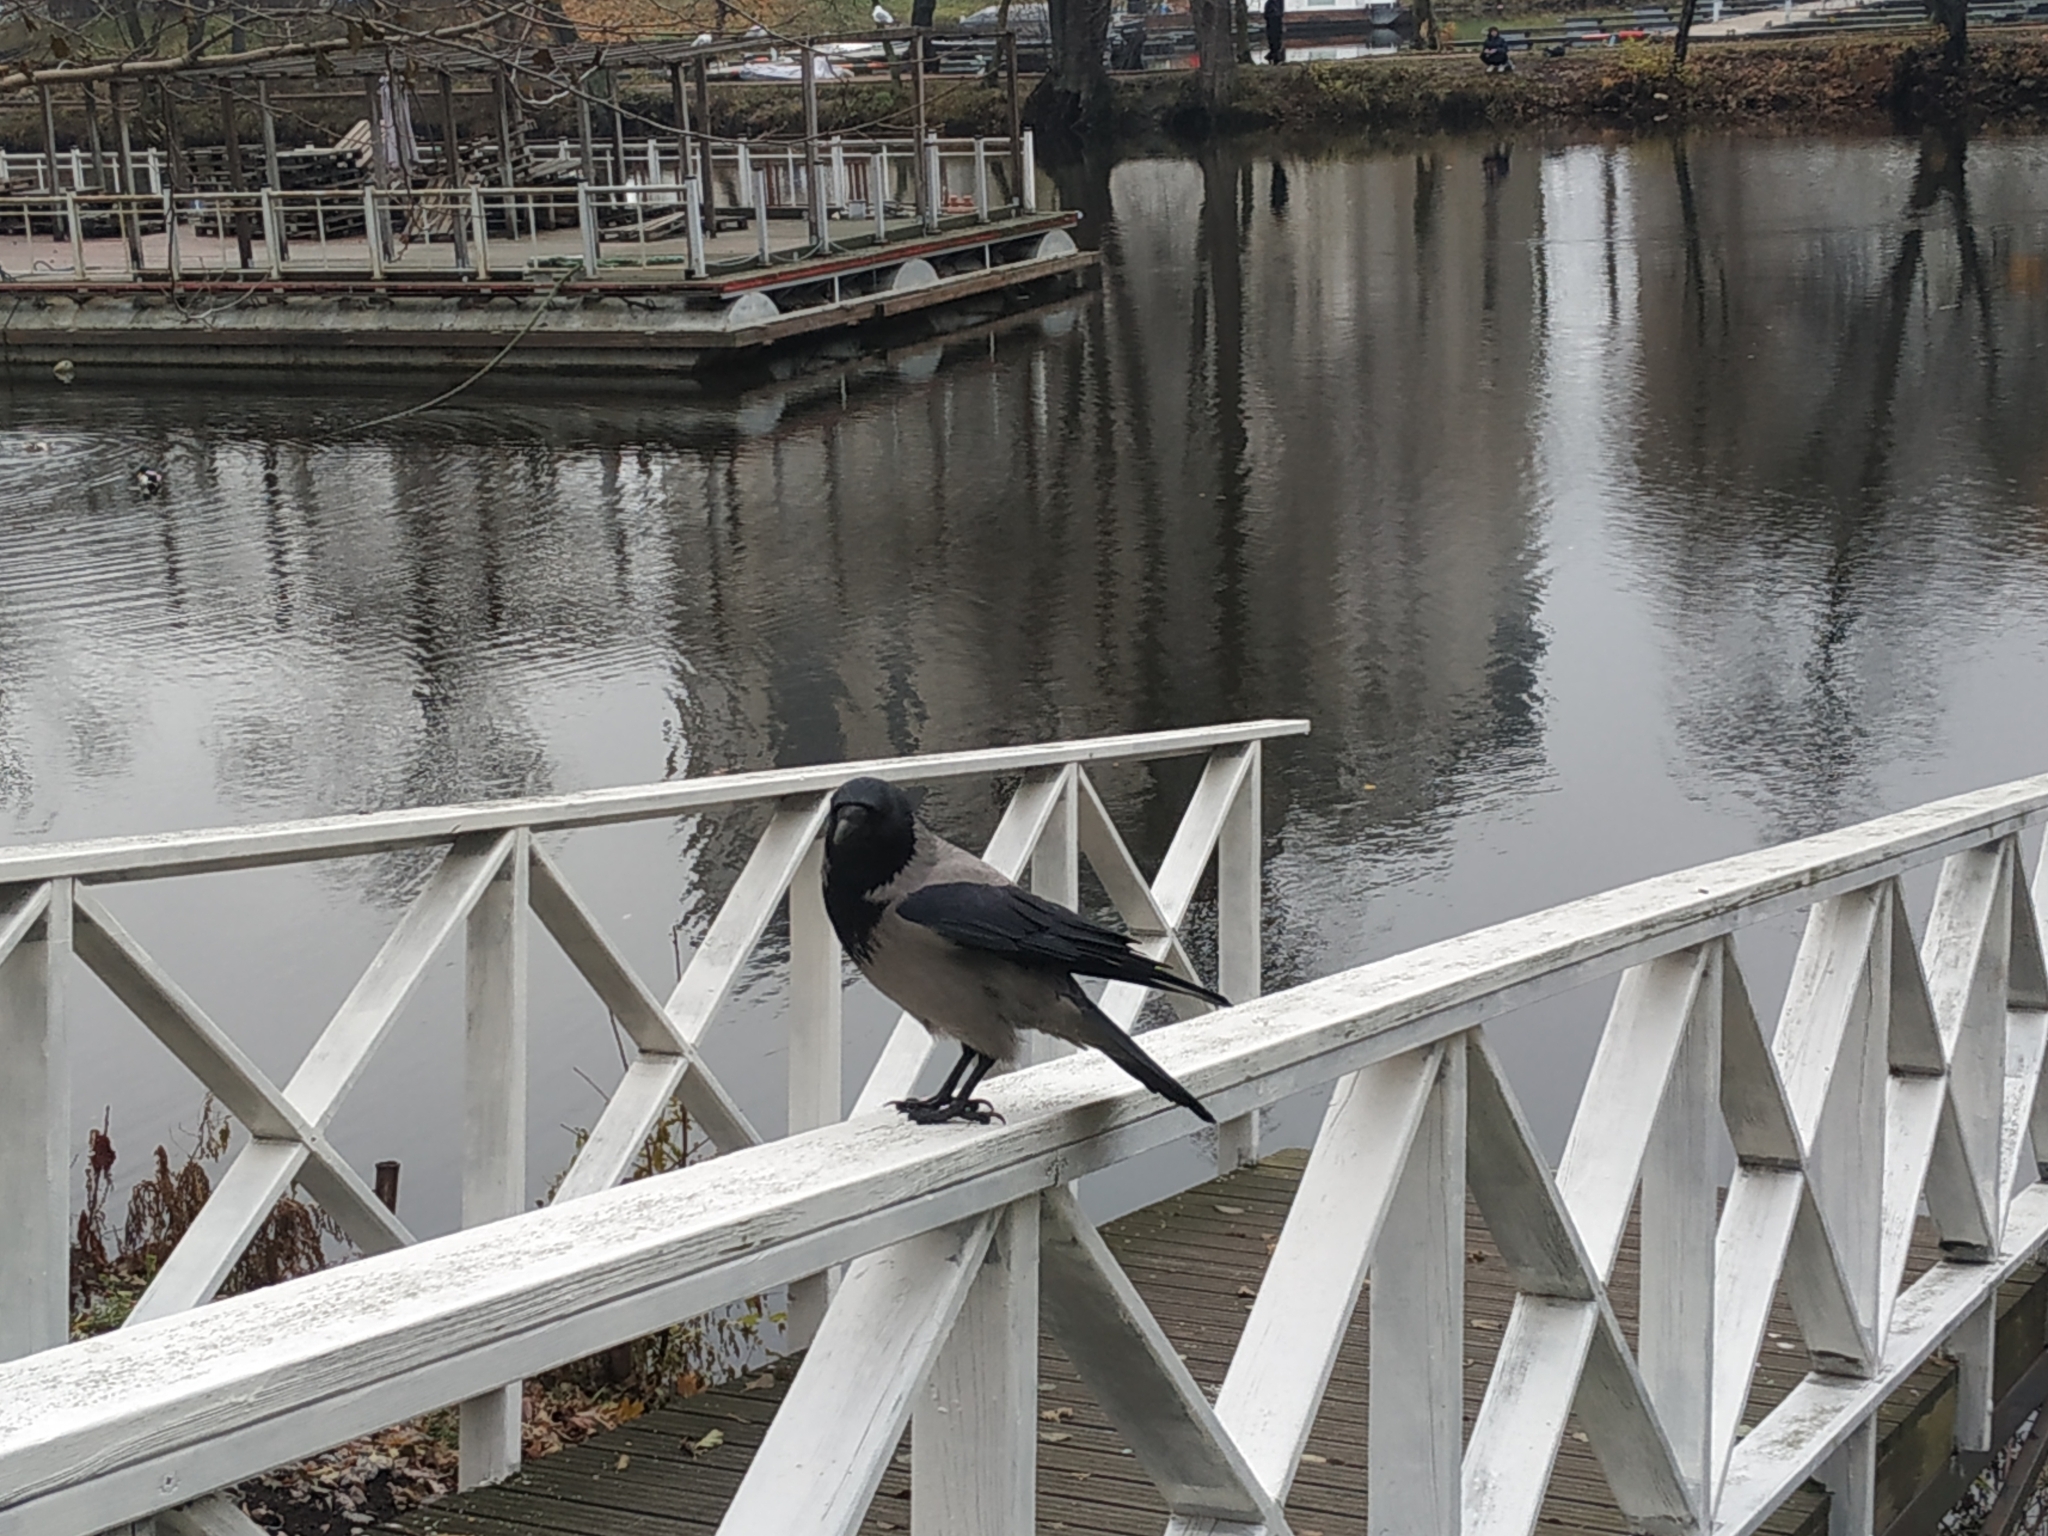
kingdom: Animalia
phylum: Chordata
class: Aves
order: Passeriformes
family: Corvidae
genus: Corvus
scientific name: Corvus cornix
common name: Hooded crow
